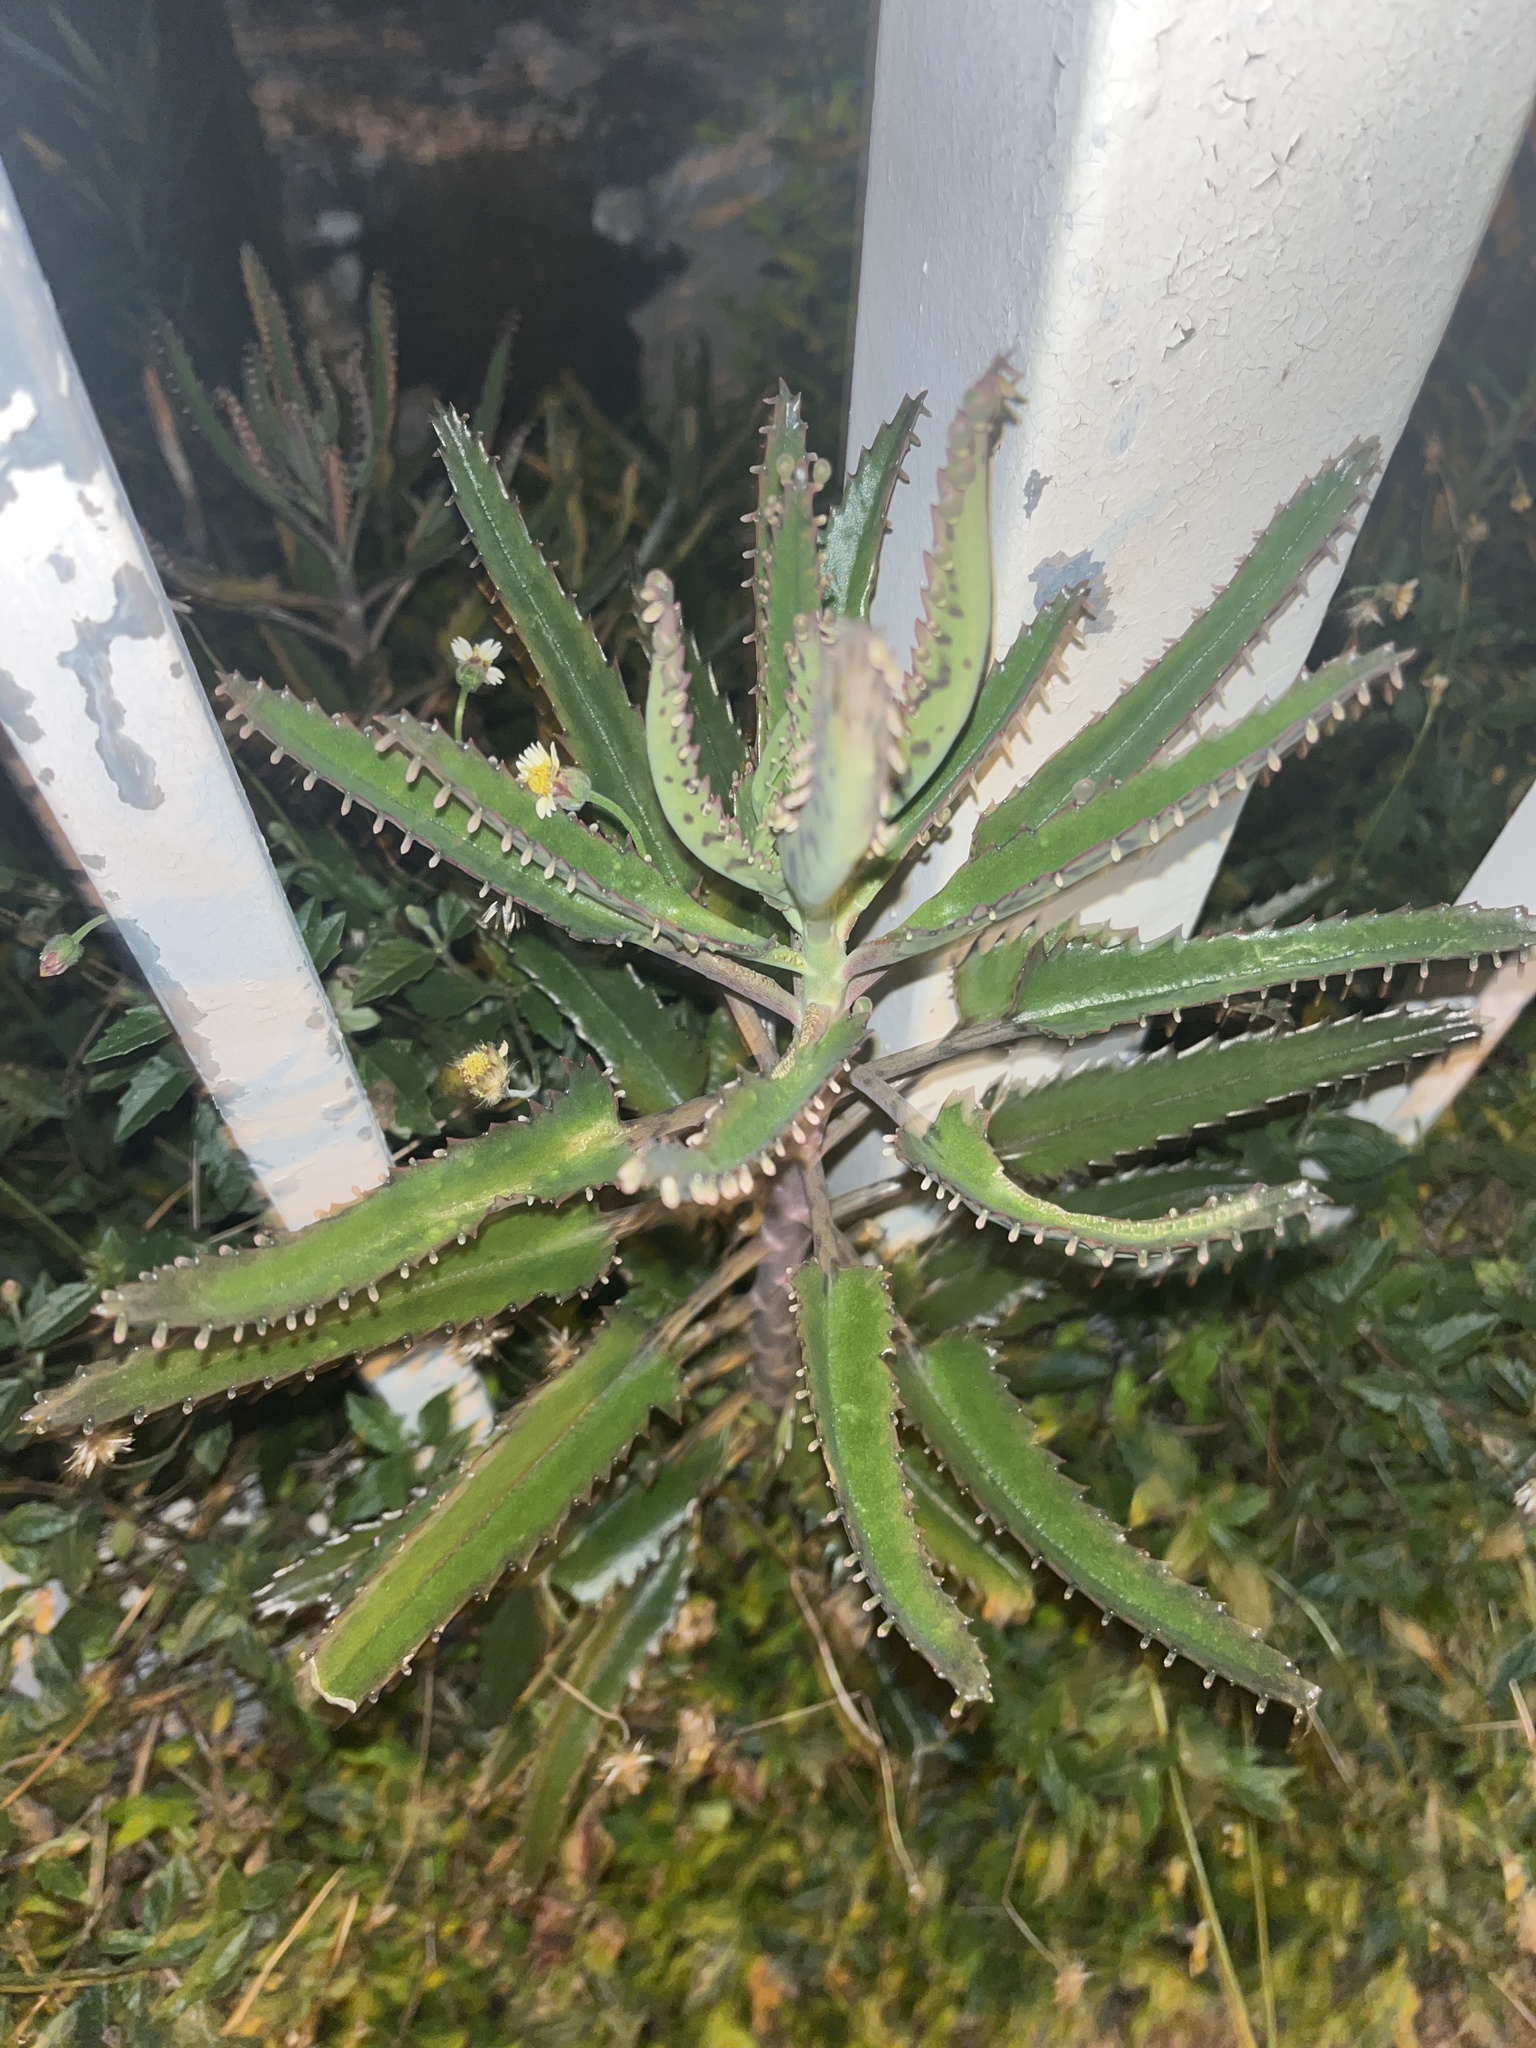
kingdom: Plantae
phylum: Tracheophyta
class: Magnoliopsida
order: Saxifragales
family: Crassulaceae
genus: Kalanchoe
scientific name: Kalanchoe houghtonii
